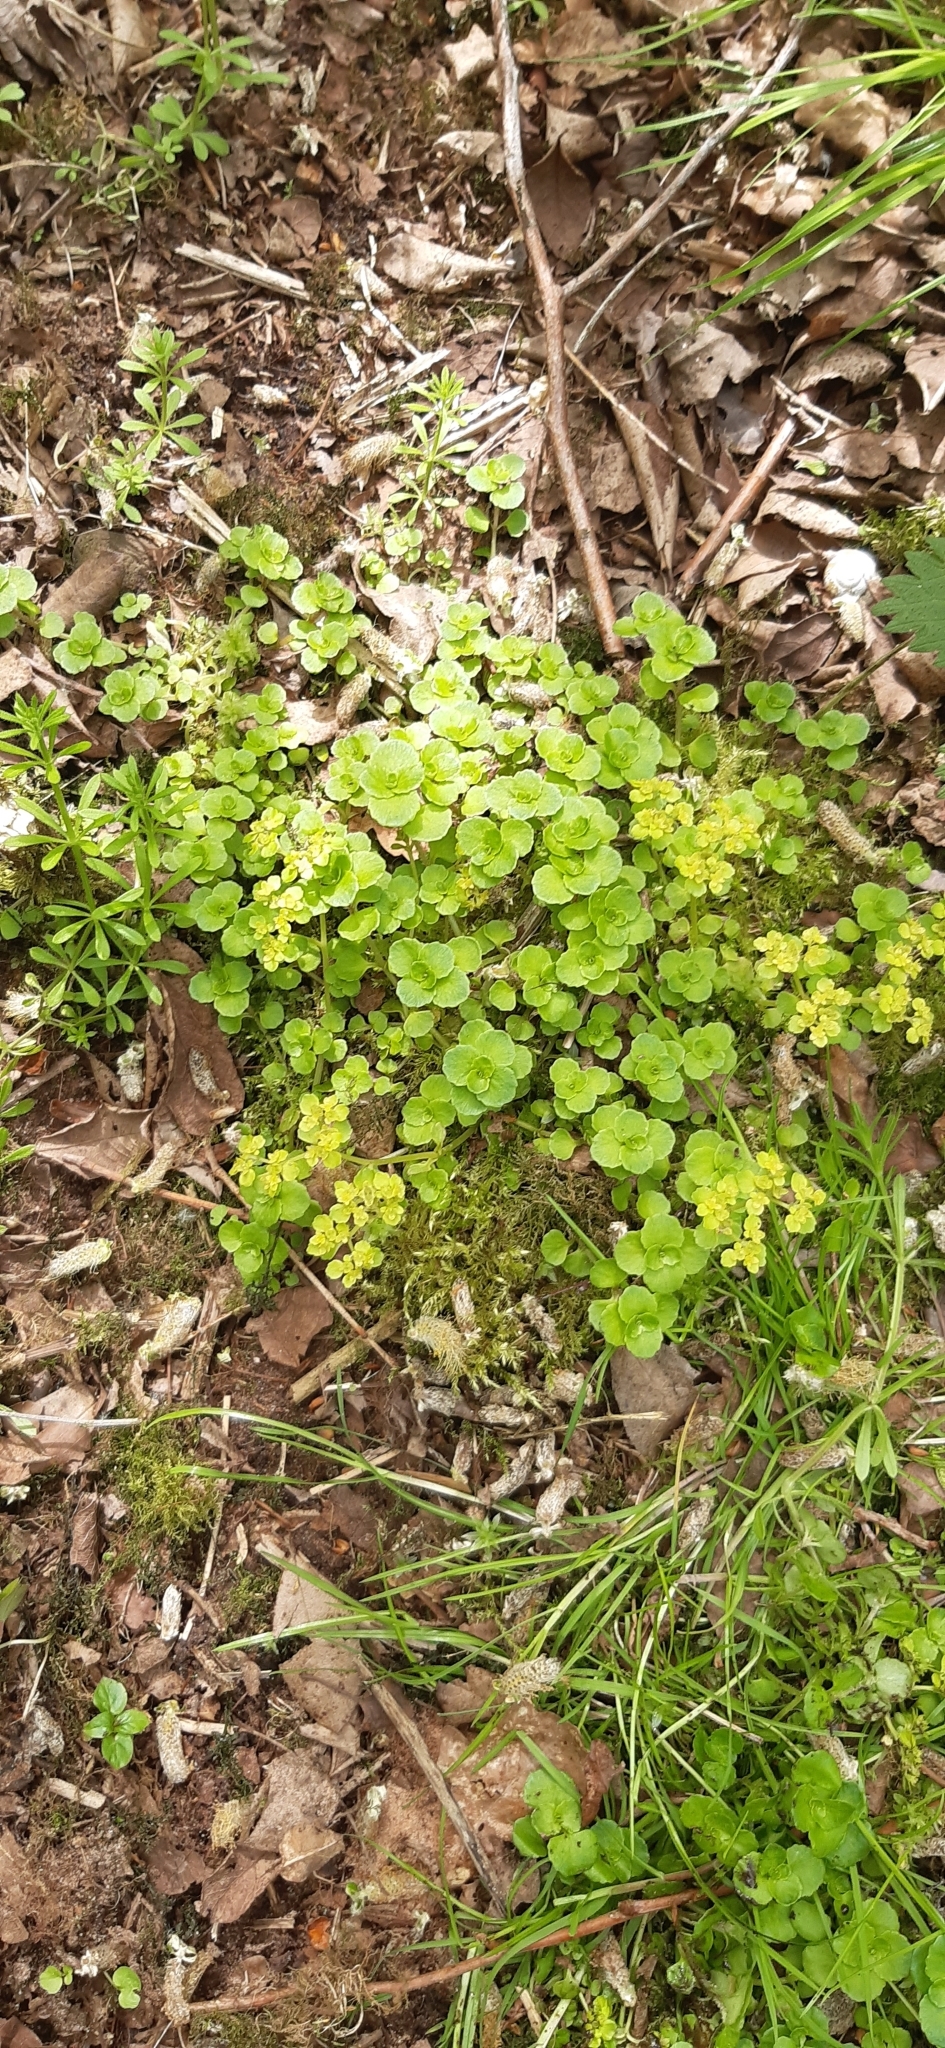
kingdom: Plantae
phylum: Tracheophyta
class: Magnoliopsida
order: Saxifragales
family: Saxifragaceae
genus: Chrysosplenium
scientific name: Chrysosplenium oppositifolium
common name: Opposite-leaved golden-saxifrage
